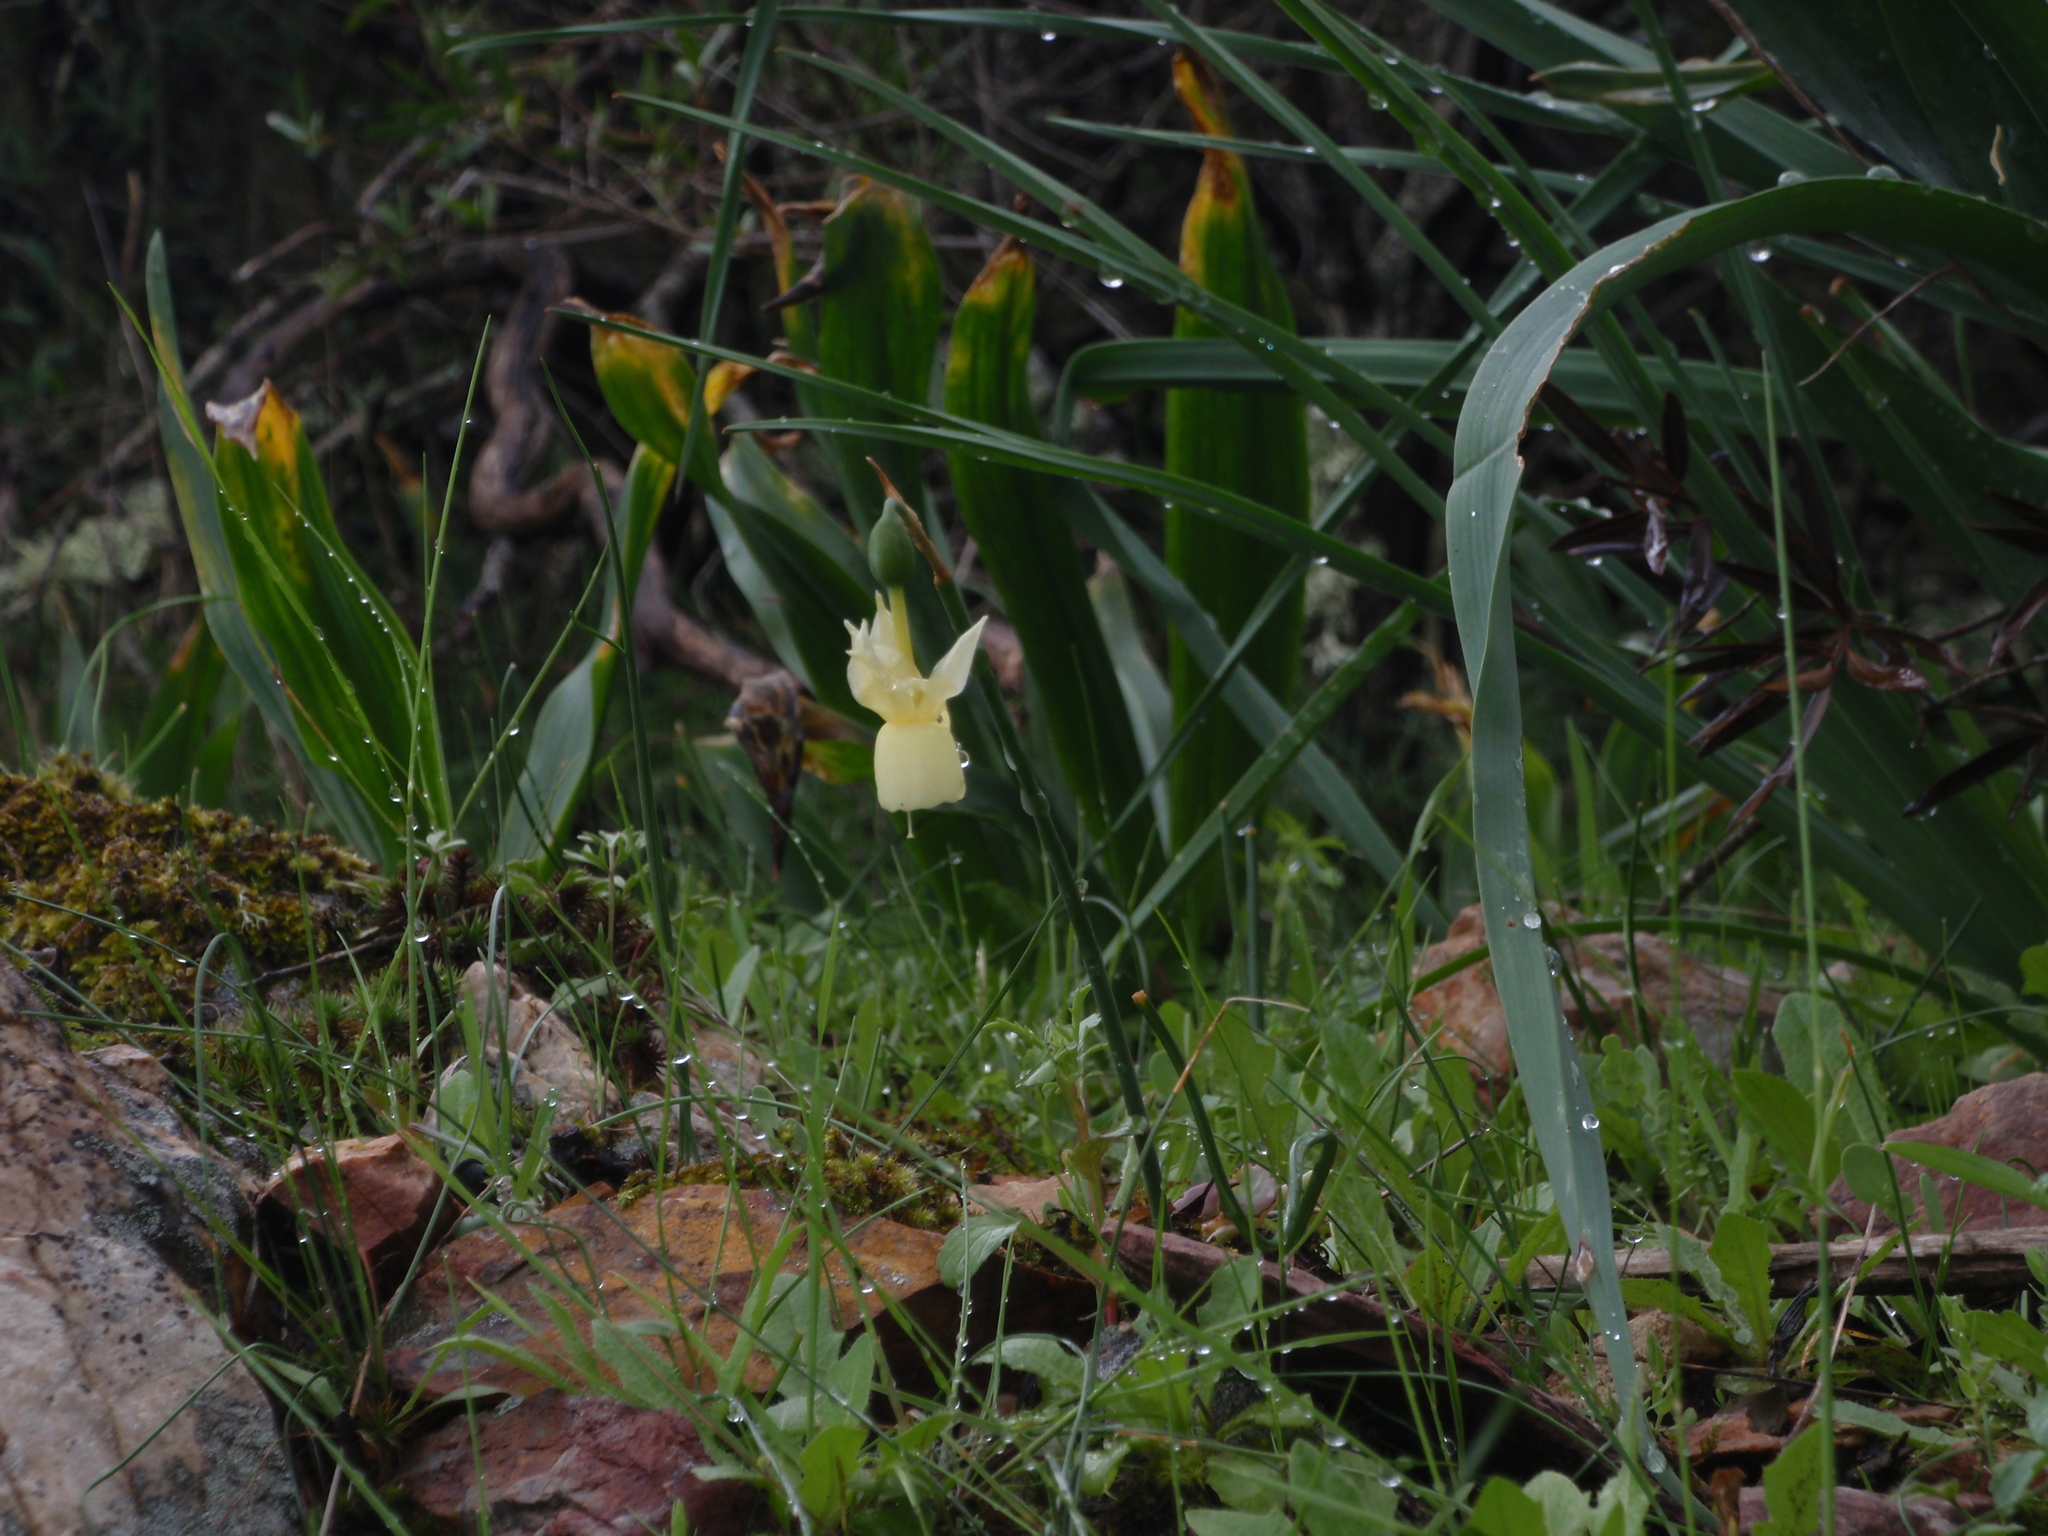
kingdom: Plantae
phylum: Tracheophyta
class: Liliopsida
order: Asparagales
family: Amaryllidaceae
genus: Narcissus
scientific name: Narcissus triandrus
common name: Angel's-tears
